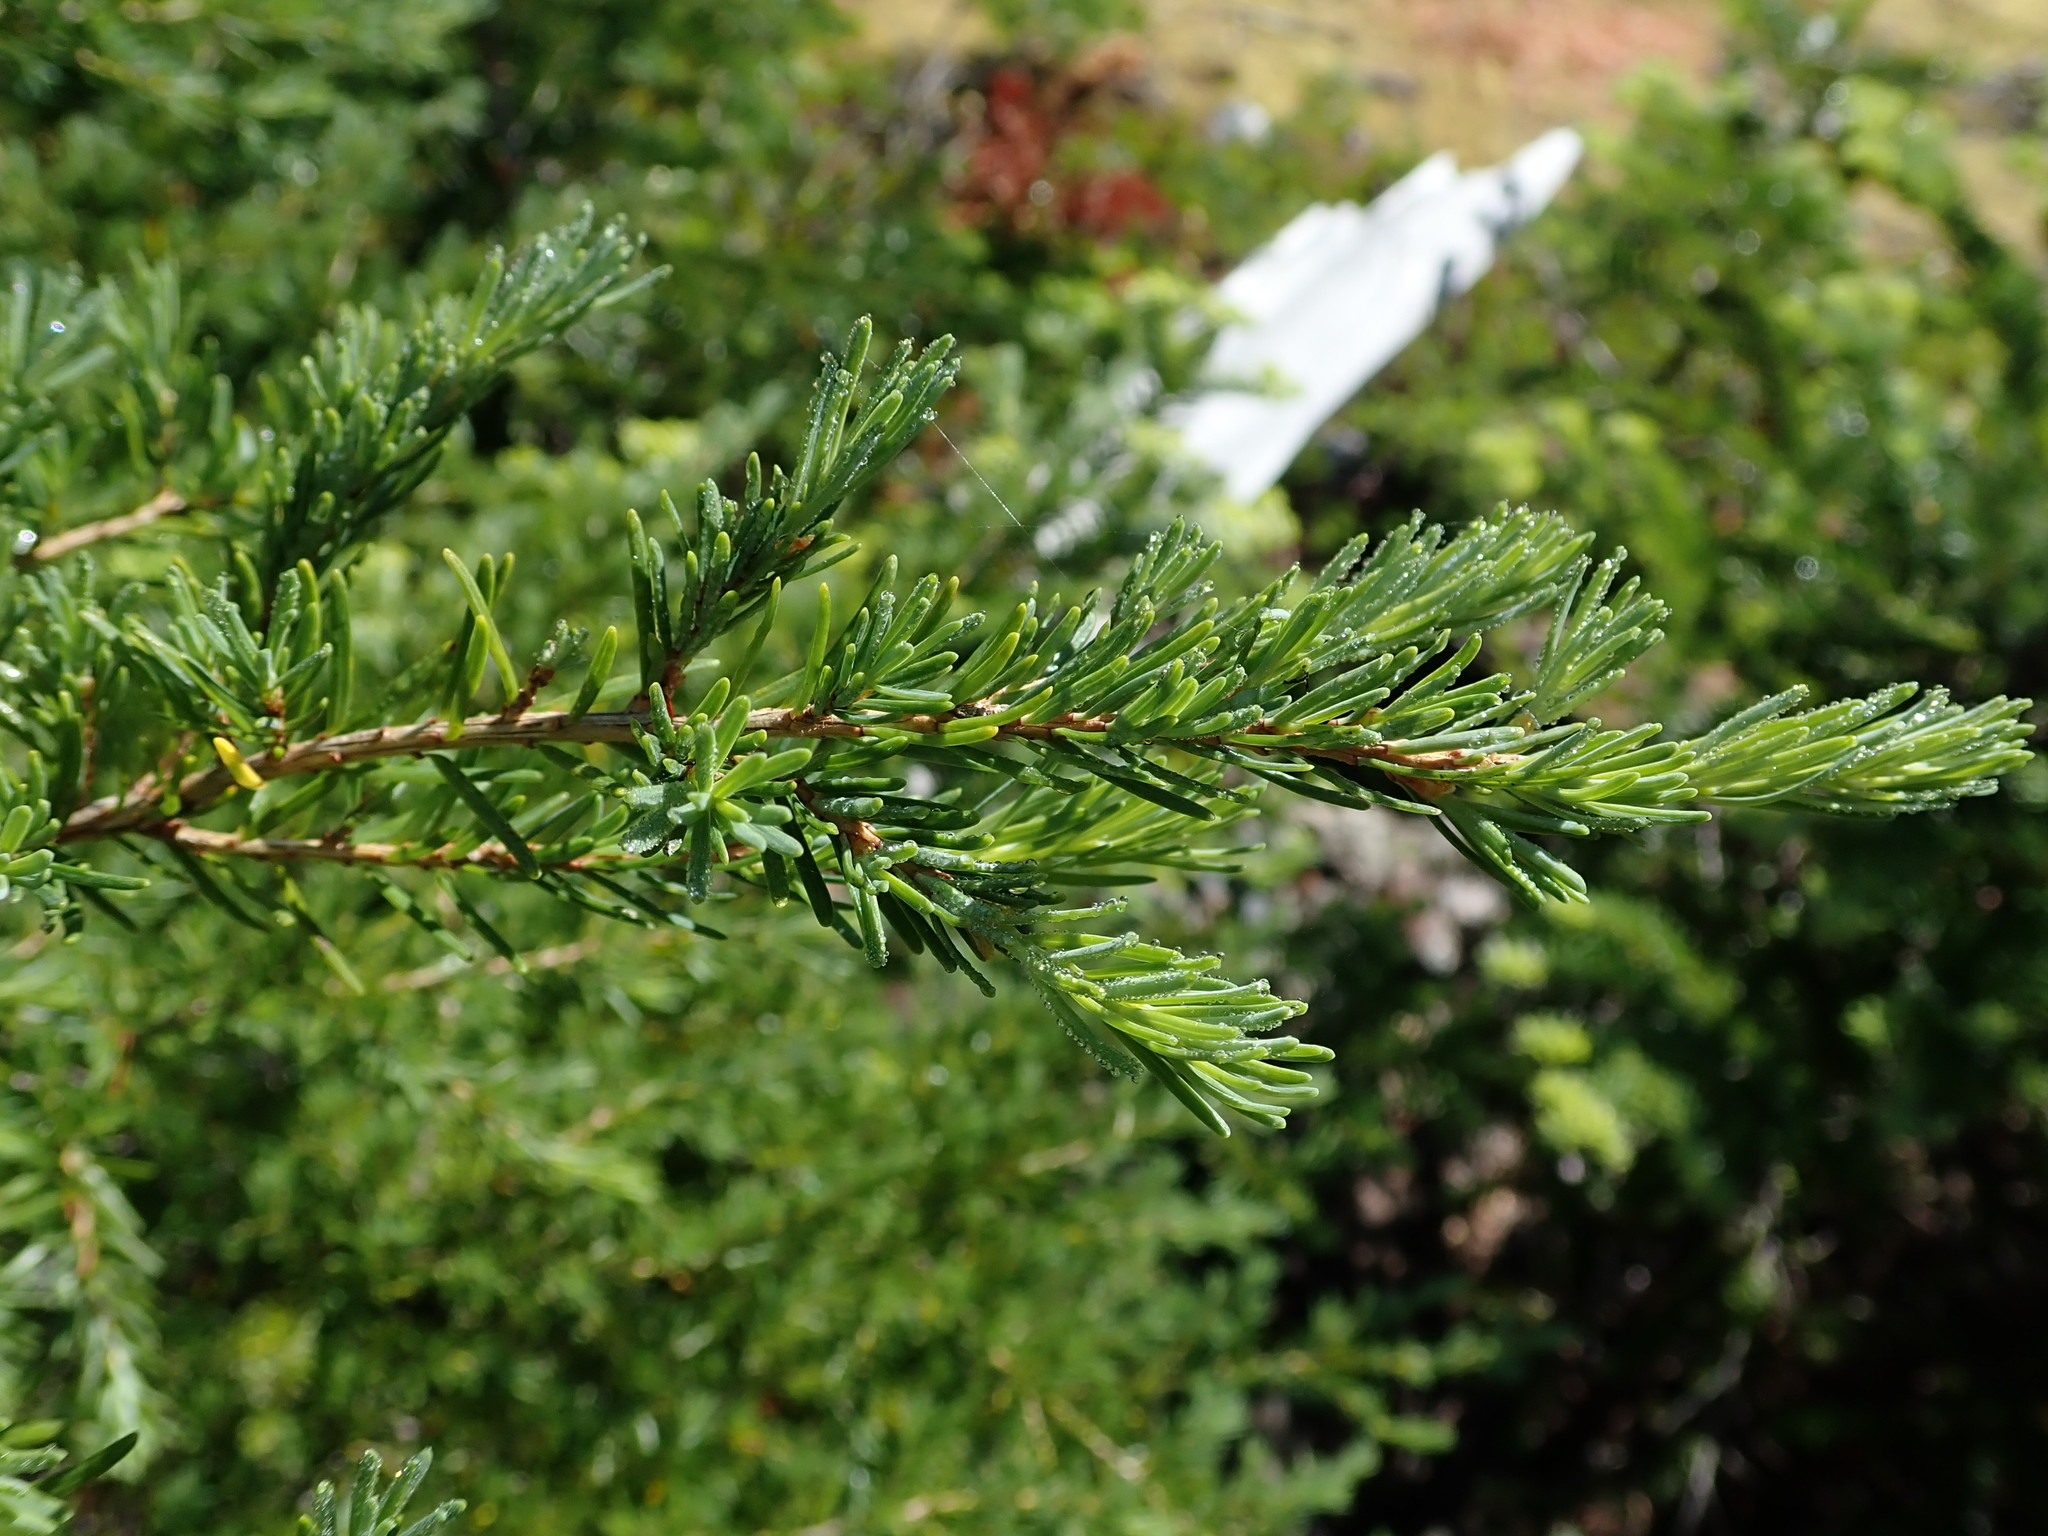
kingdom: Plantae
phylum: Tracheophyta
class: Pinopsida
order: Pinales
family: Pinaceae
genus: Tsuga
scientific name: Tsuga mertensiana
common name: Mountain hemlock
